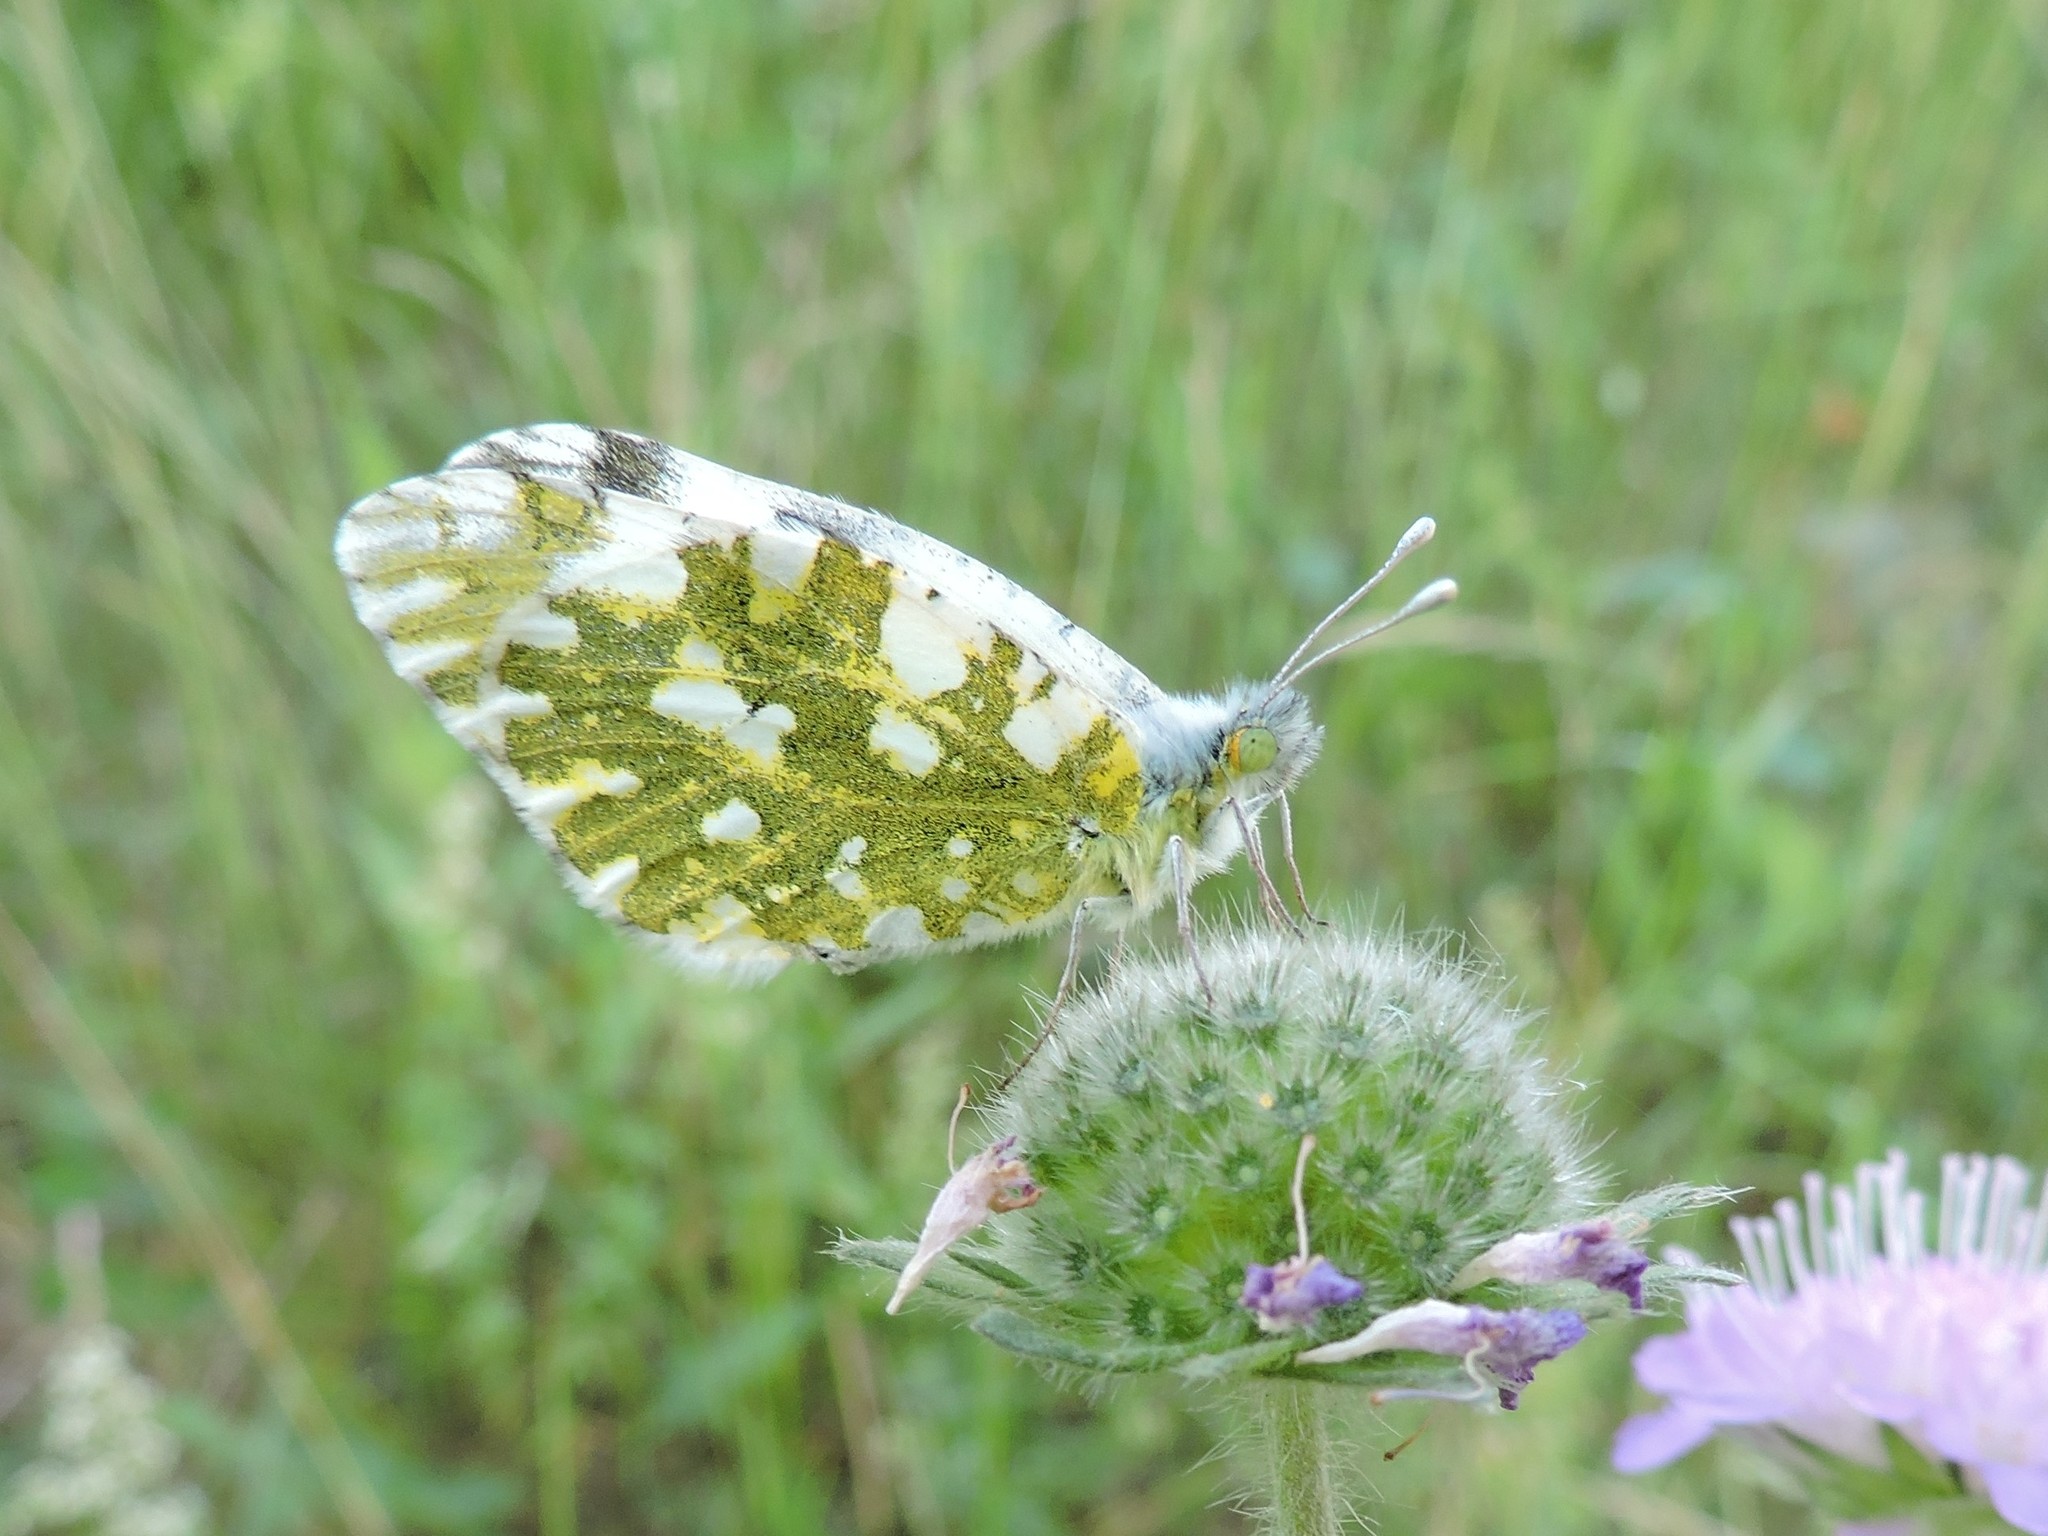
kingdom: Animalia
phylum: Arthropoda
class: Insecta
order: Lepidoptera
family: Pieridae
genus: Euchloe
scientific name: Euchloe ausonia
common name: Eastern dappled white
